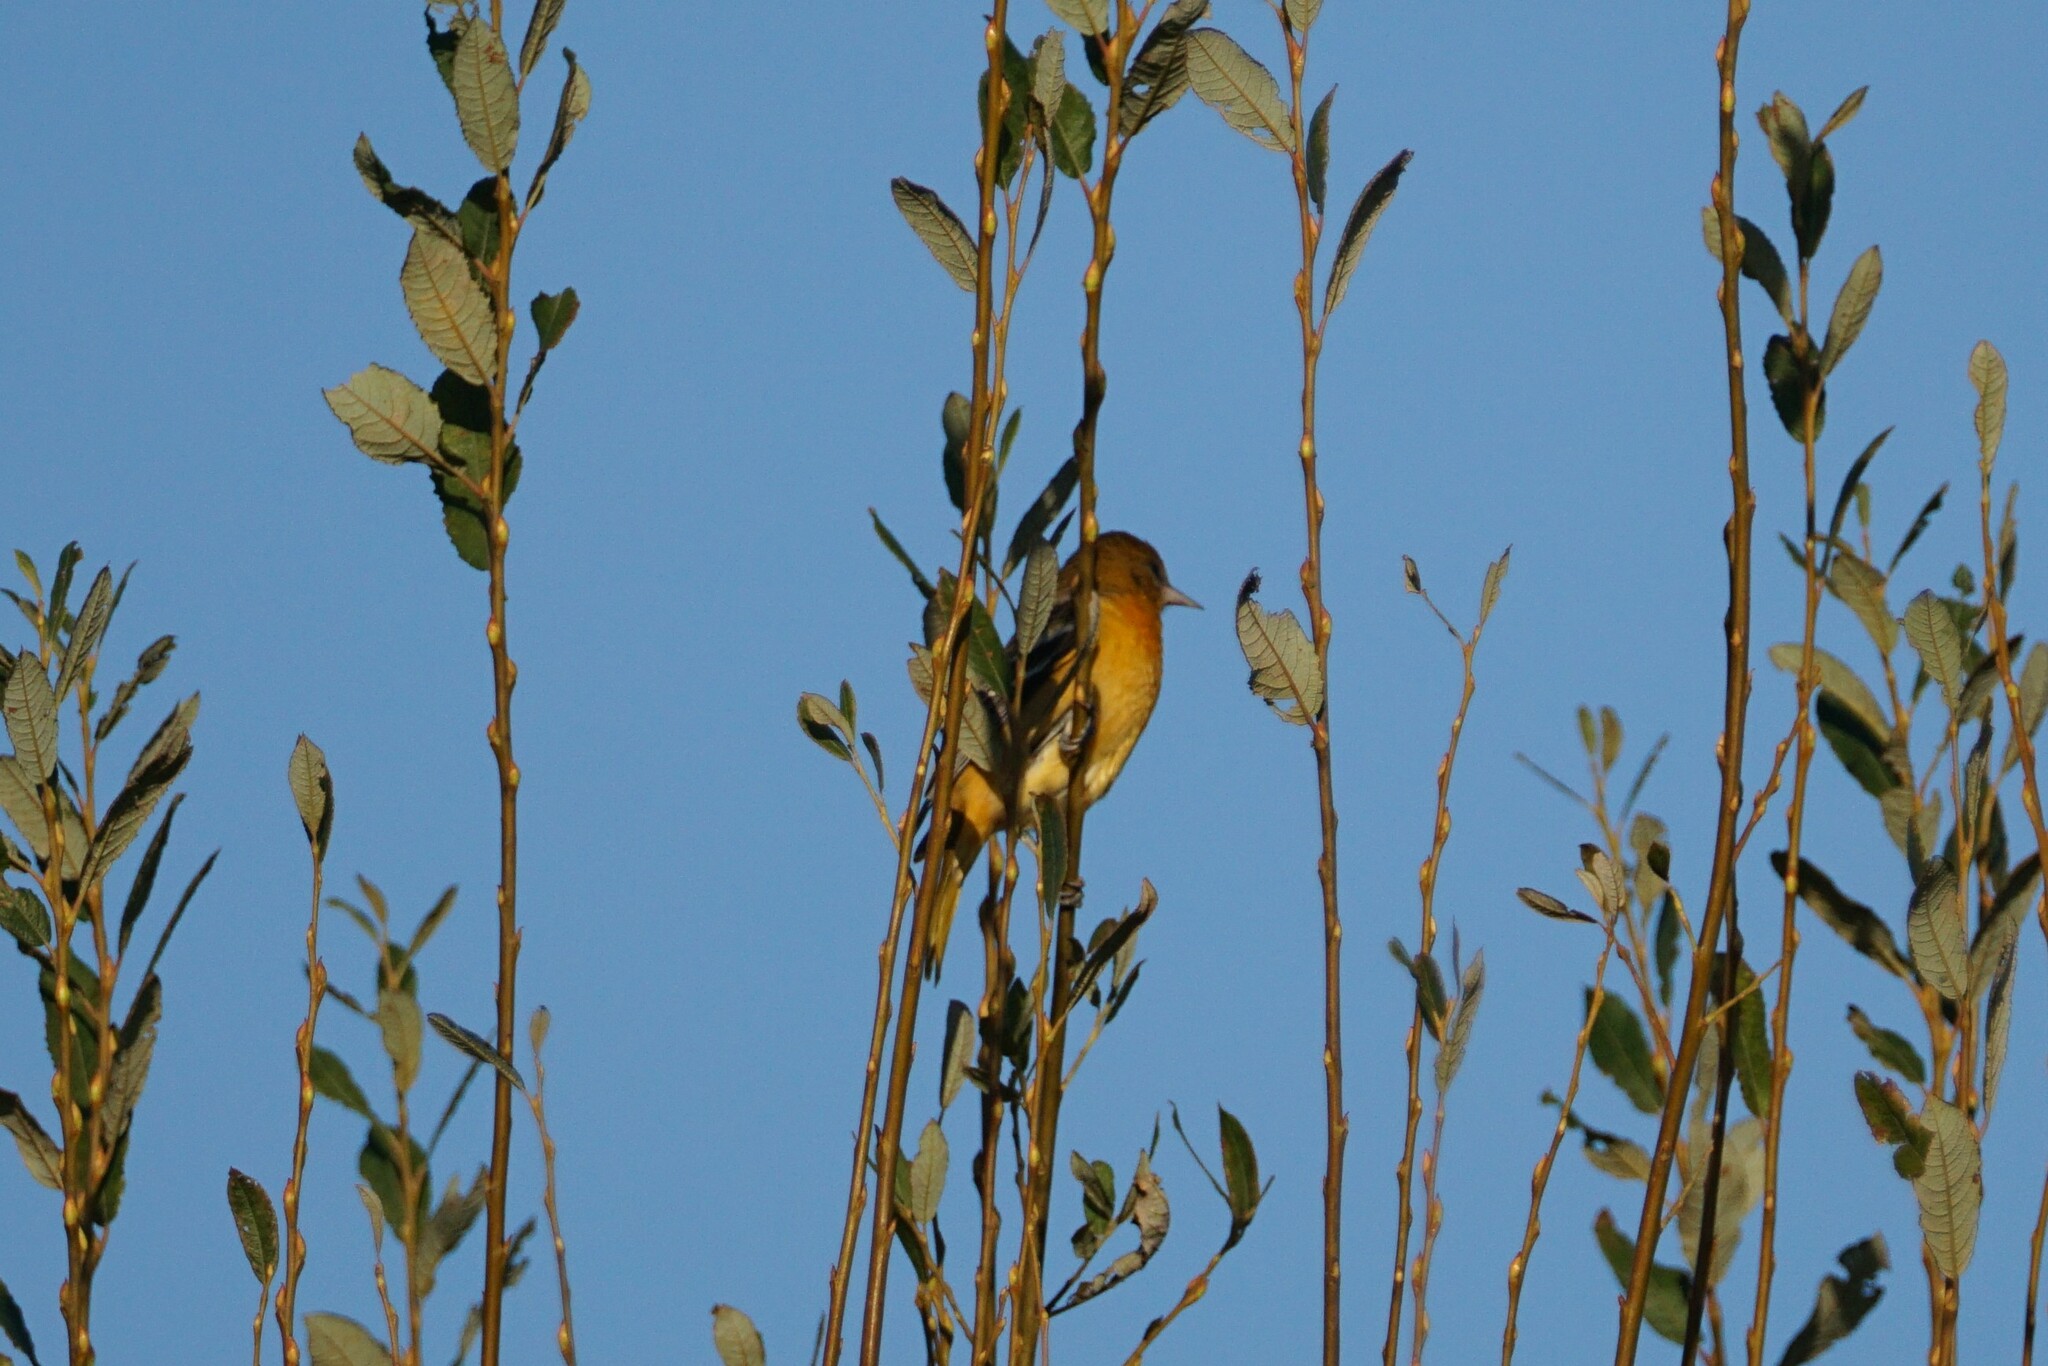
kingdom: Animalia
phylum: Chordata
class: Aves
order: Passeriformes
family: Icteridae
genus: Icterus
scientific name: Icterus galbula
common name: Baltimore oriole
